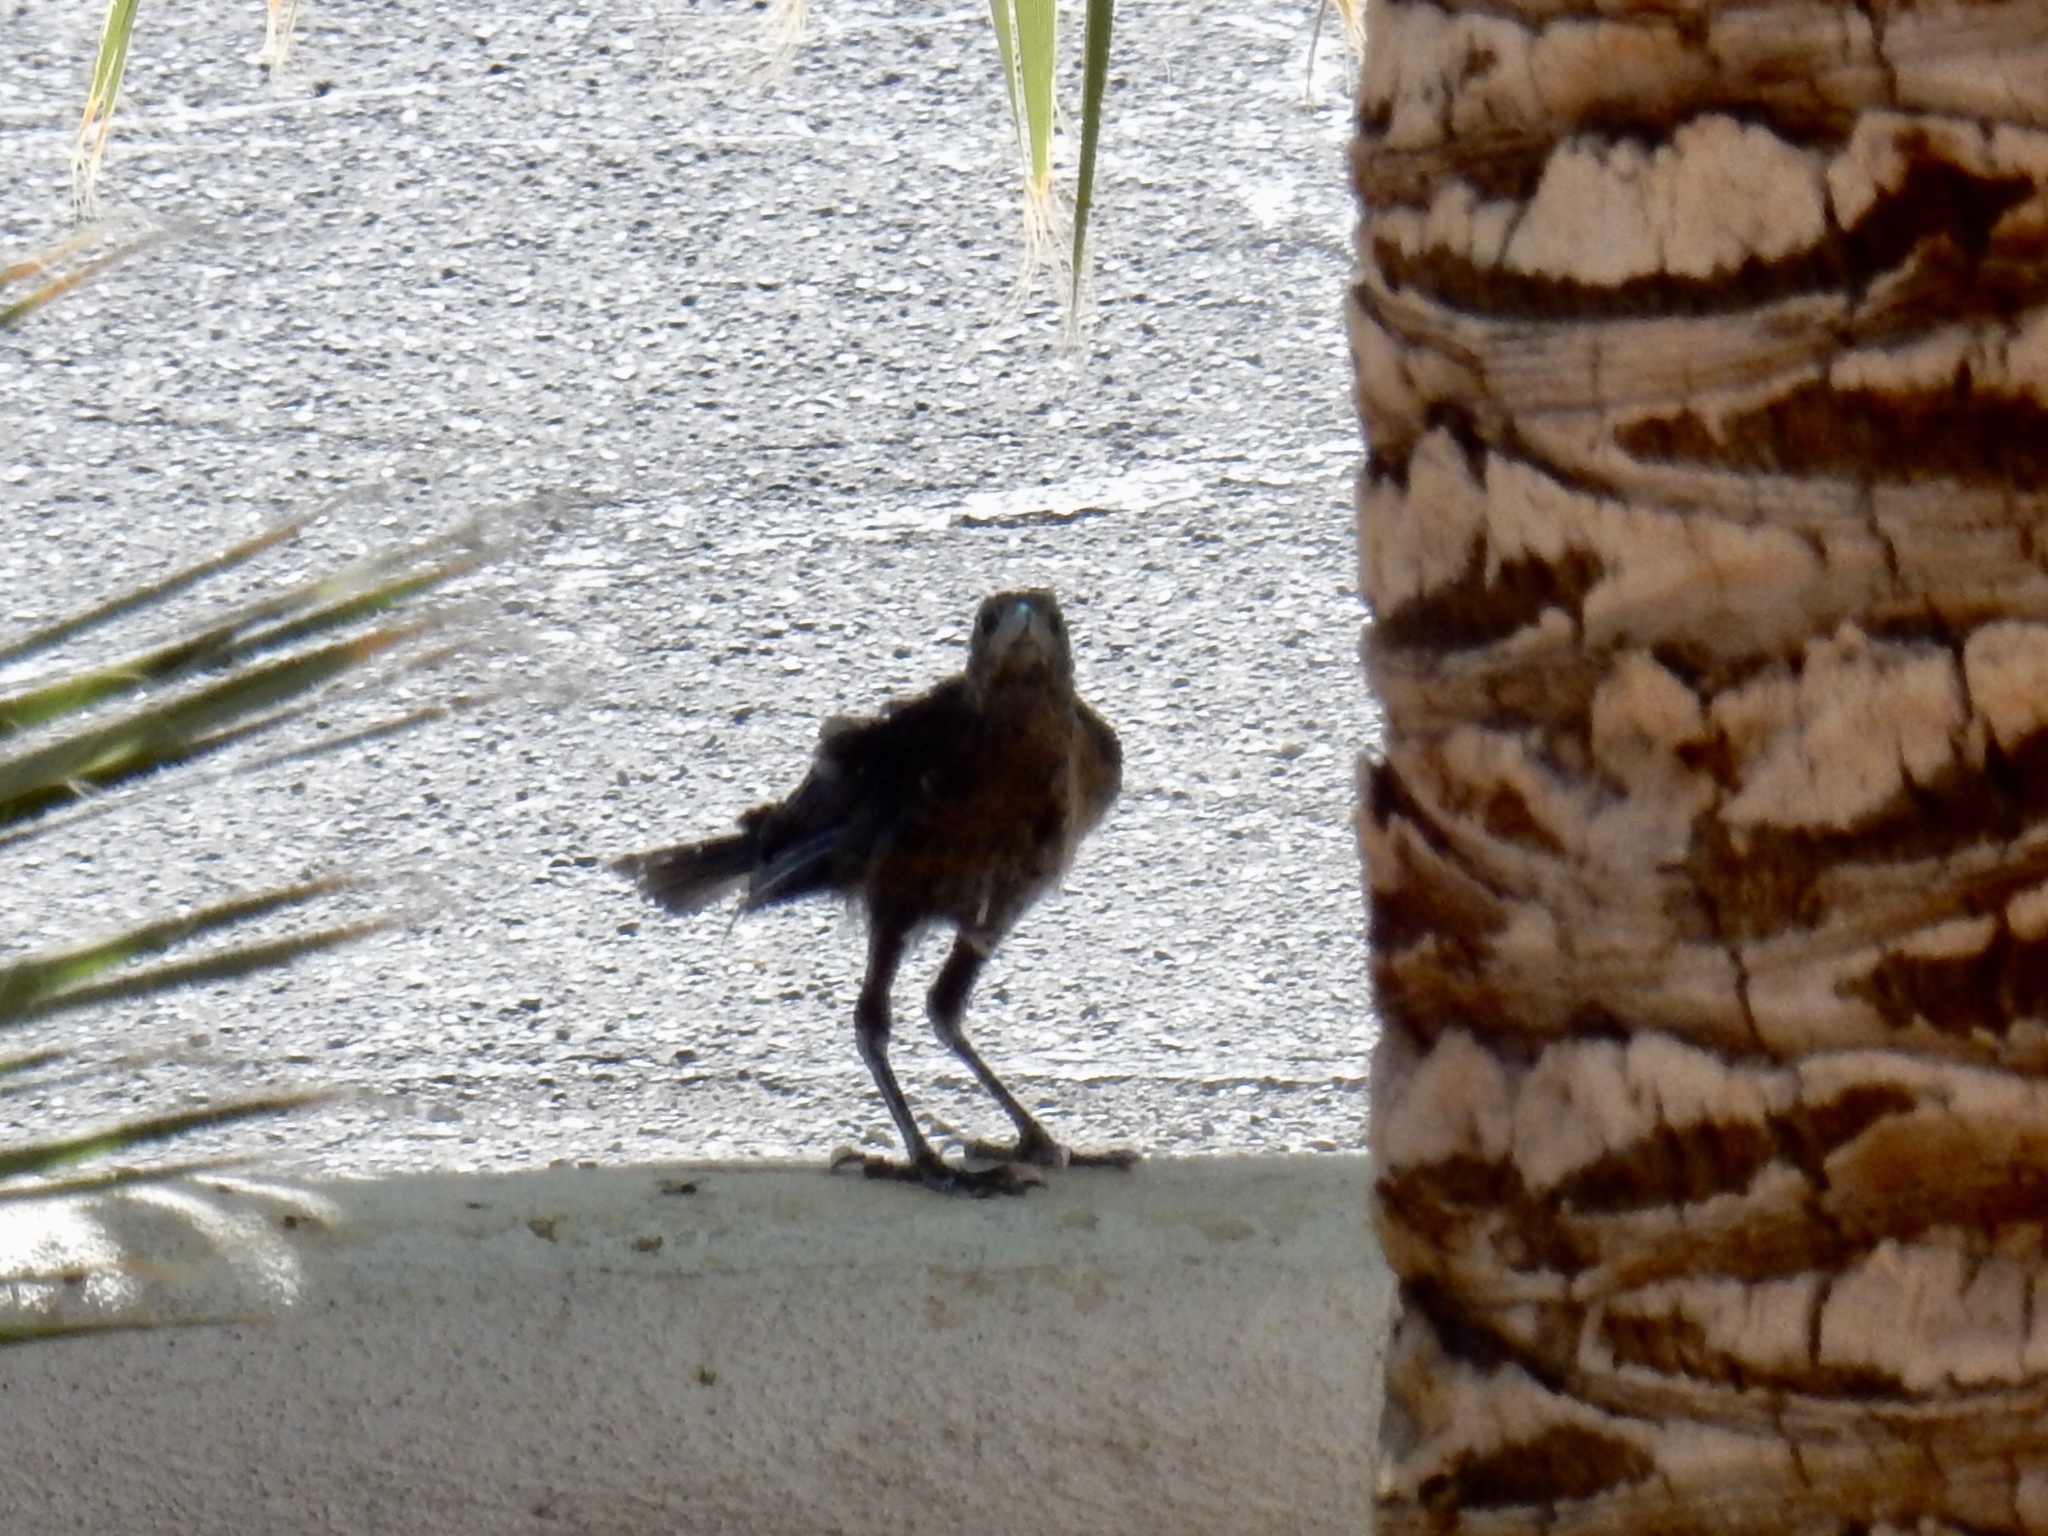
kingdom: Animalia
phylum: Chordata
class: Aves
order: Passeriformes
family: Icteridae
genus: Quiscalus
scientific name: Quiscalus mexicanus
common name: Great-tailed grackle
